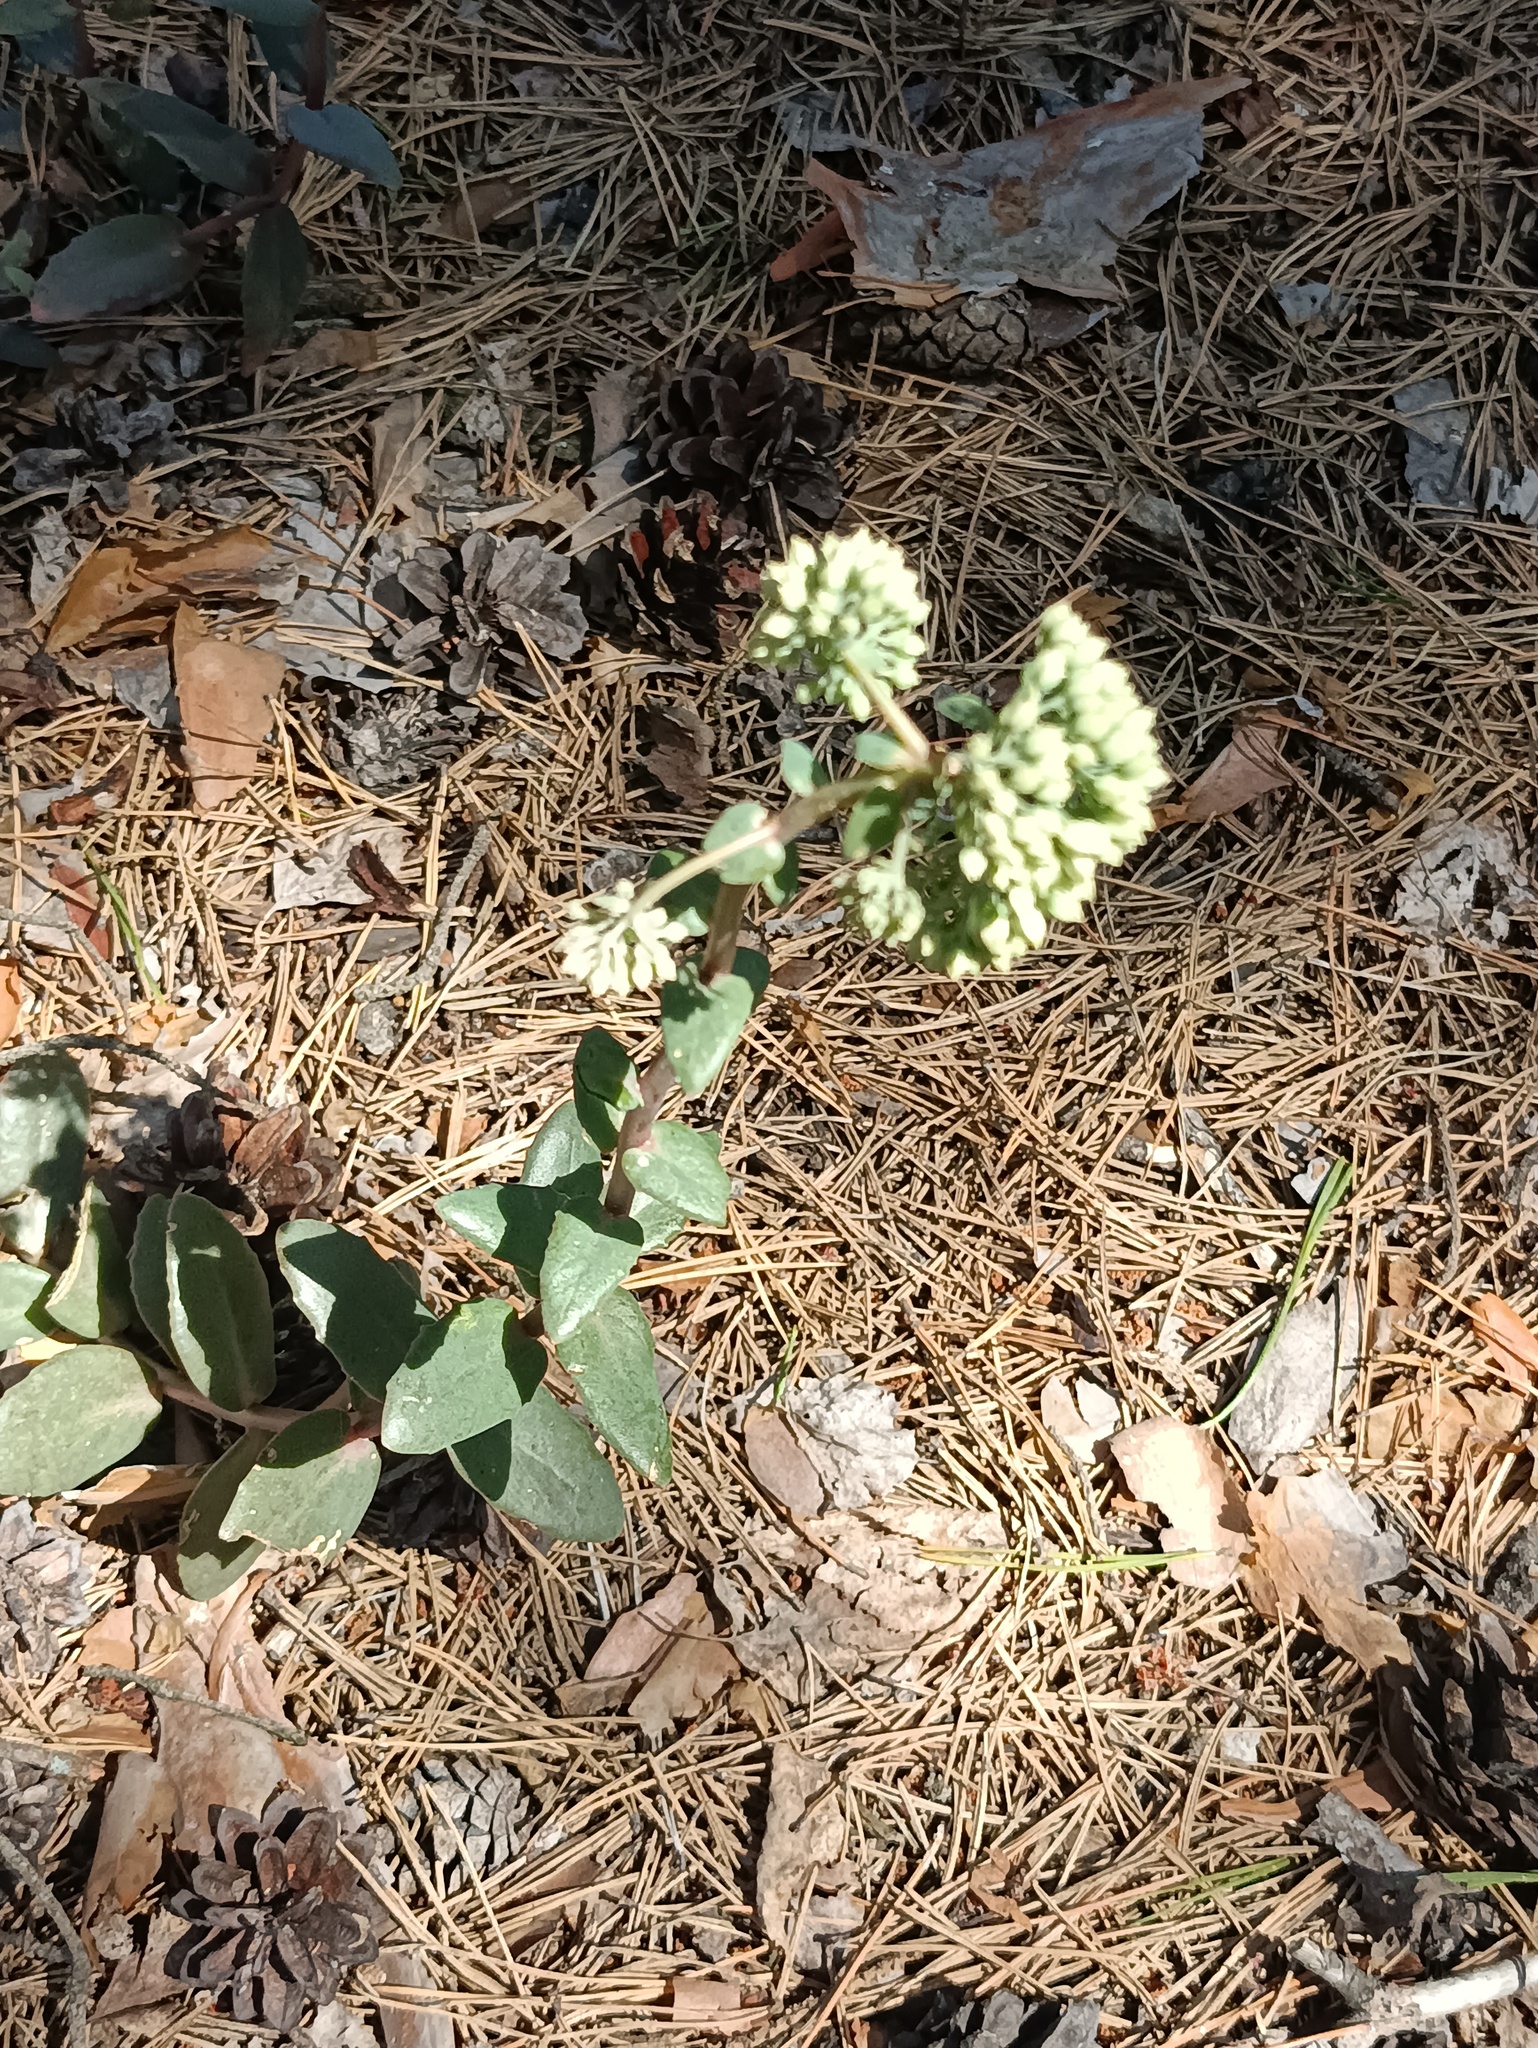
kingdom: Plantae
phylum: Tracheophyta
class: Magnoliopsida
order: Saxifragales
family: Crassulaceae
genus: Hylotelephium
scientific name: Hylotelephium maximum
